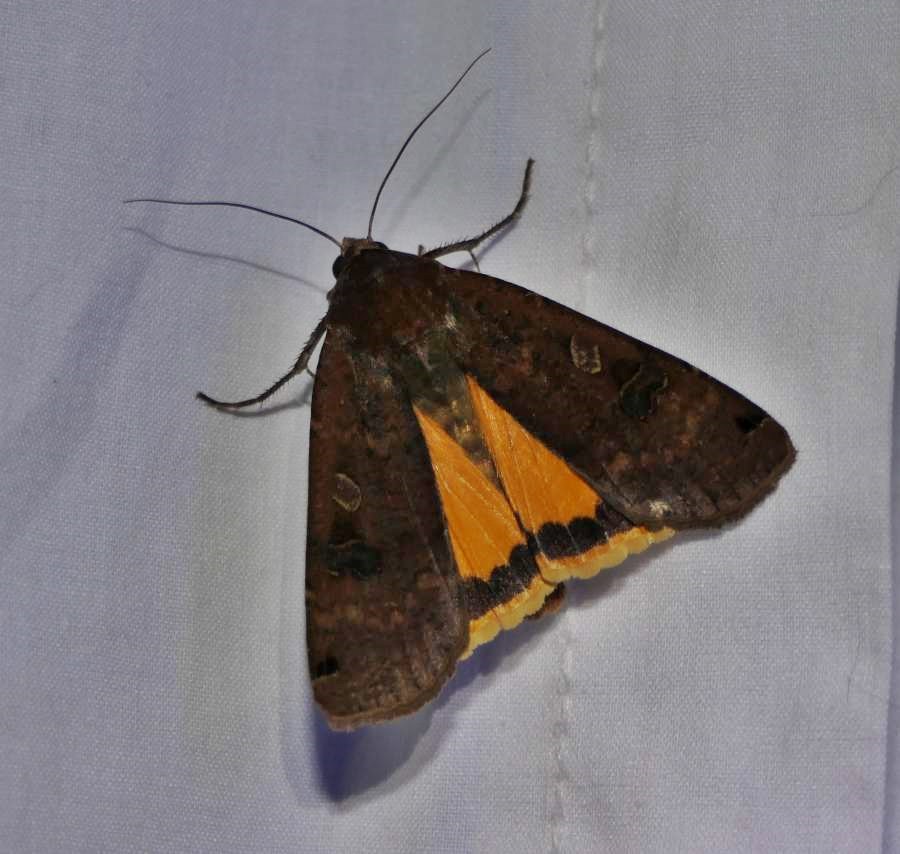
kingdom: Animalia
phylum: Arthropoda
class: Insecta
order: Lepidoptera
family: Noctuidae
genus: Noctua
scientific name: Noctua pronuba
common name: Large yellow underwing
